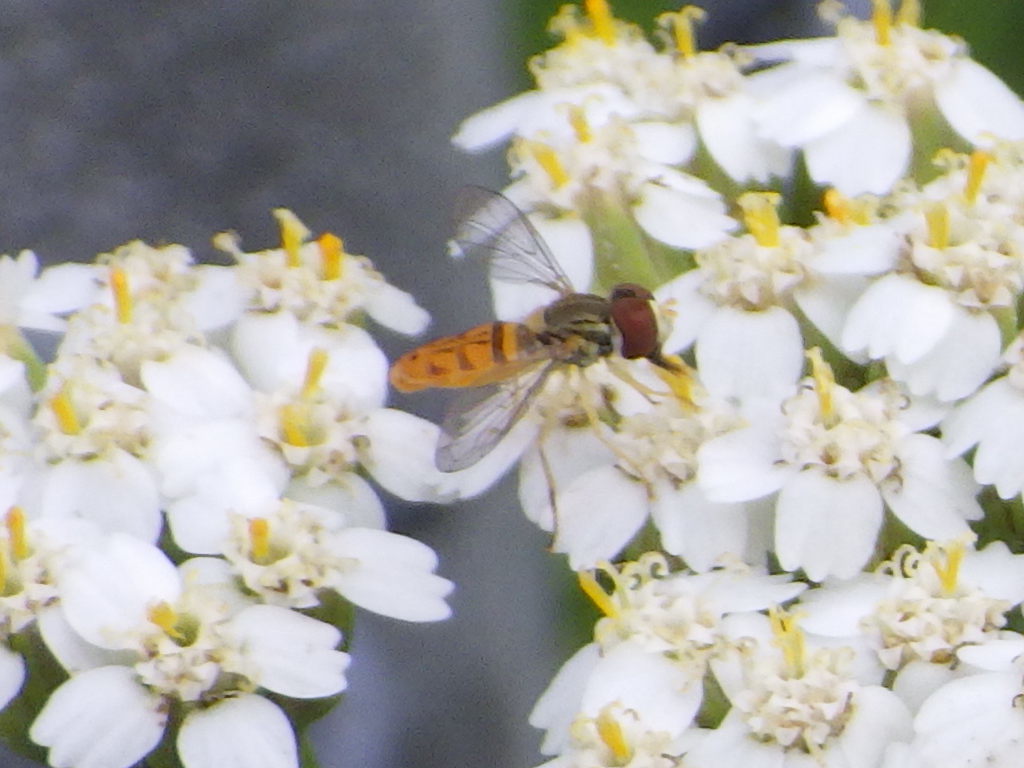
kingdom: Animalia
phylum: Arthropoda
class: Insecta
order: Diptera
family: Syrphidae
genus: Toxomerus
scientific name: Toxomerus marginatus
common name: Syrphid fly
